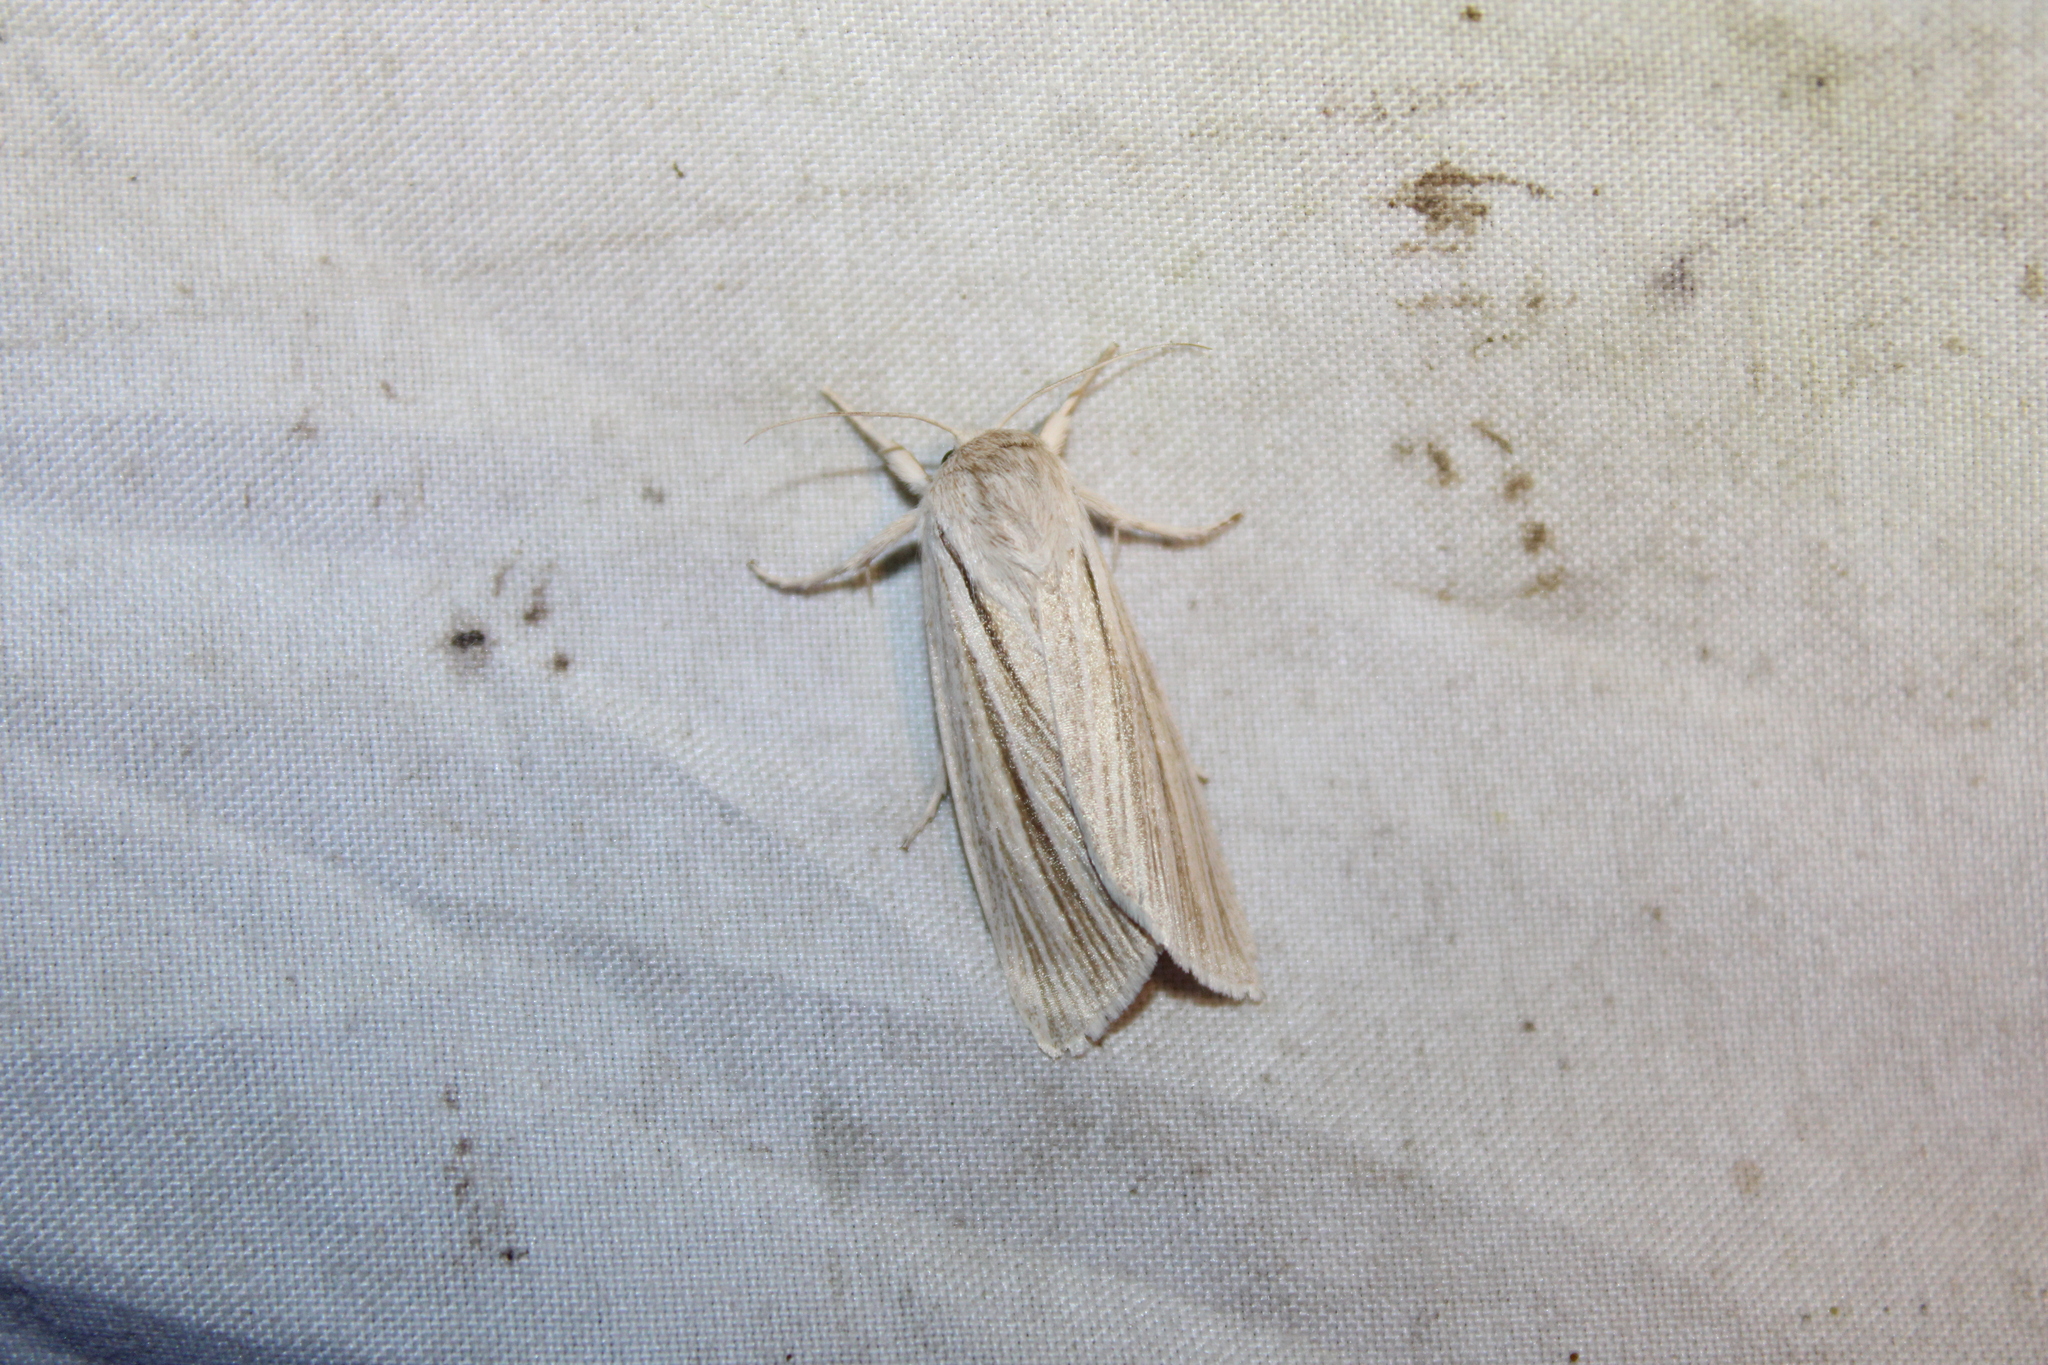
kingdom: Animalia
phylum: Arthropoda
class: Insecta
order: Lepidoptera
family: Noctuidae
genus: Acronicta
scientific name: Acronicta insularis
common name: Henry's marsh moth
